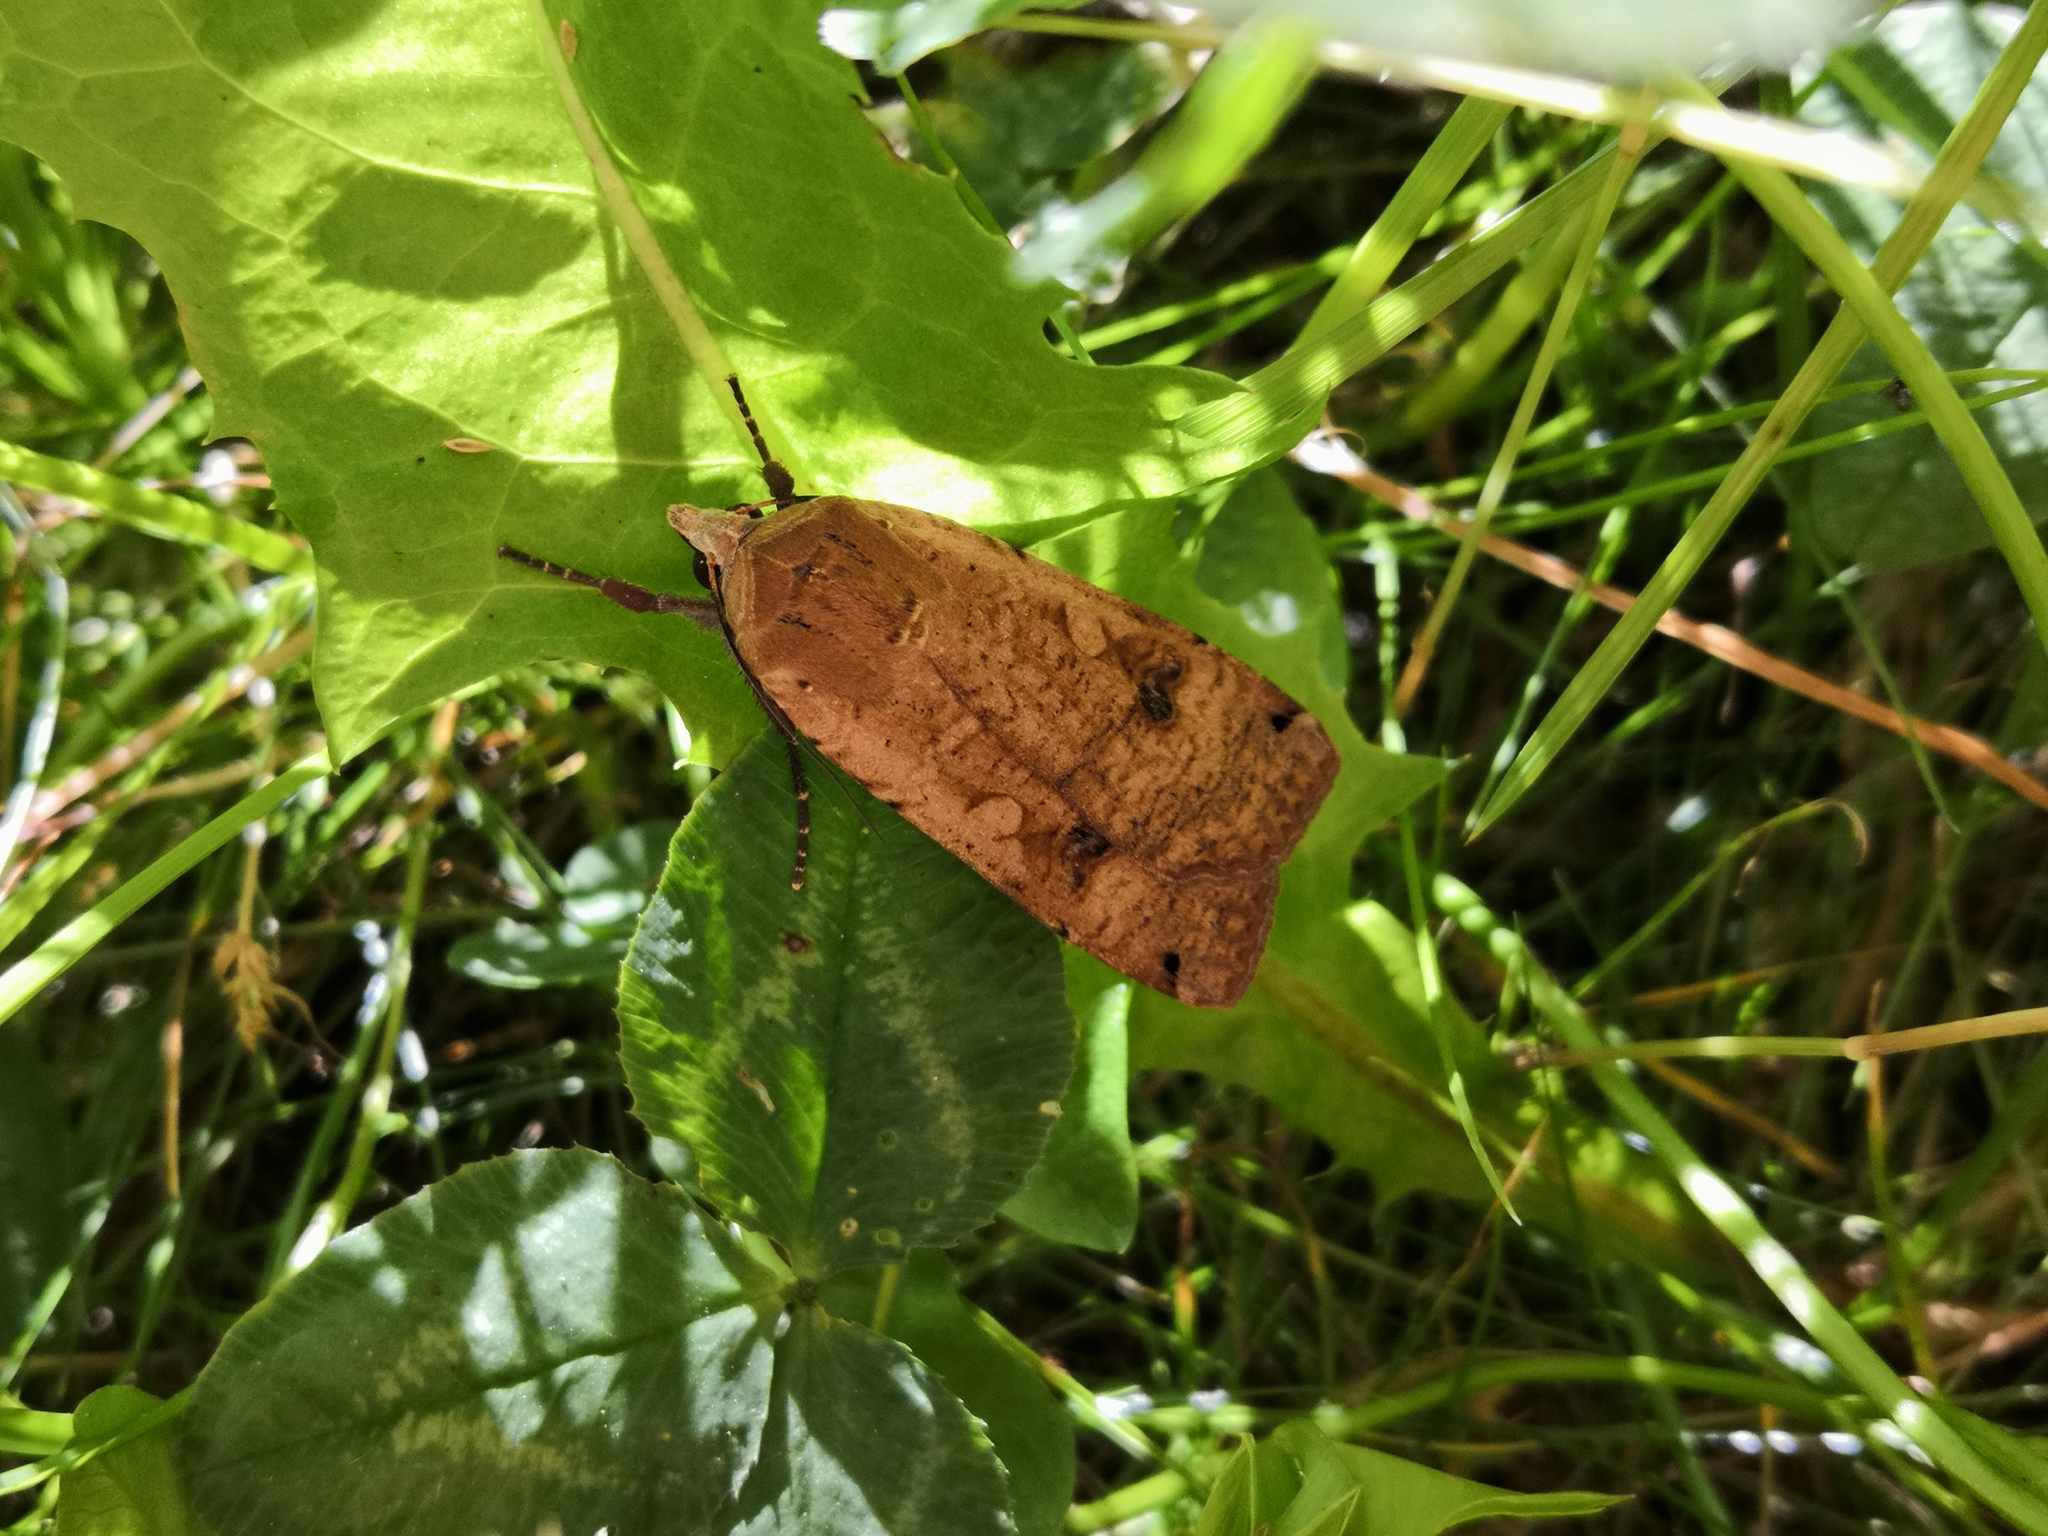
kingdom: Animalia
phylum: Arthropoda
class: Insecta
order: Lepidoptera
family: Noctuidae
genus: Noctua
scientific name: Noctua pronuba
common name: Large yellow underwing
